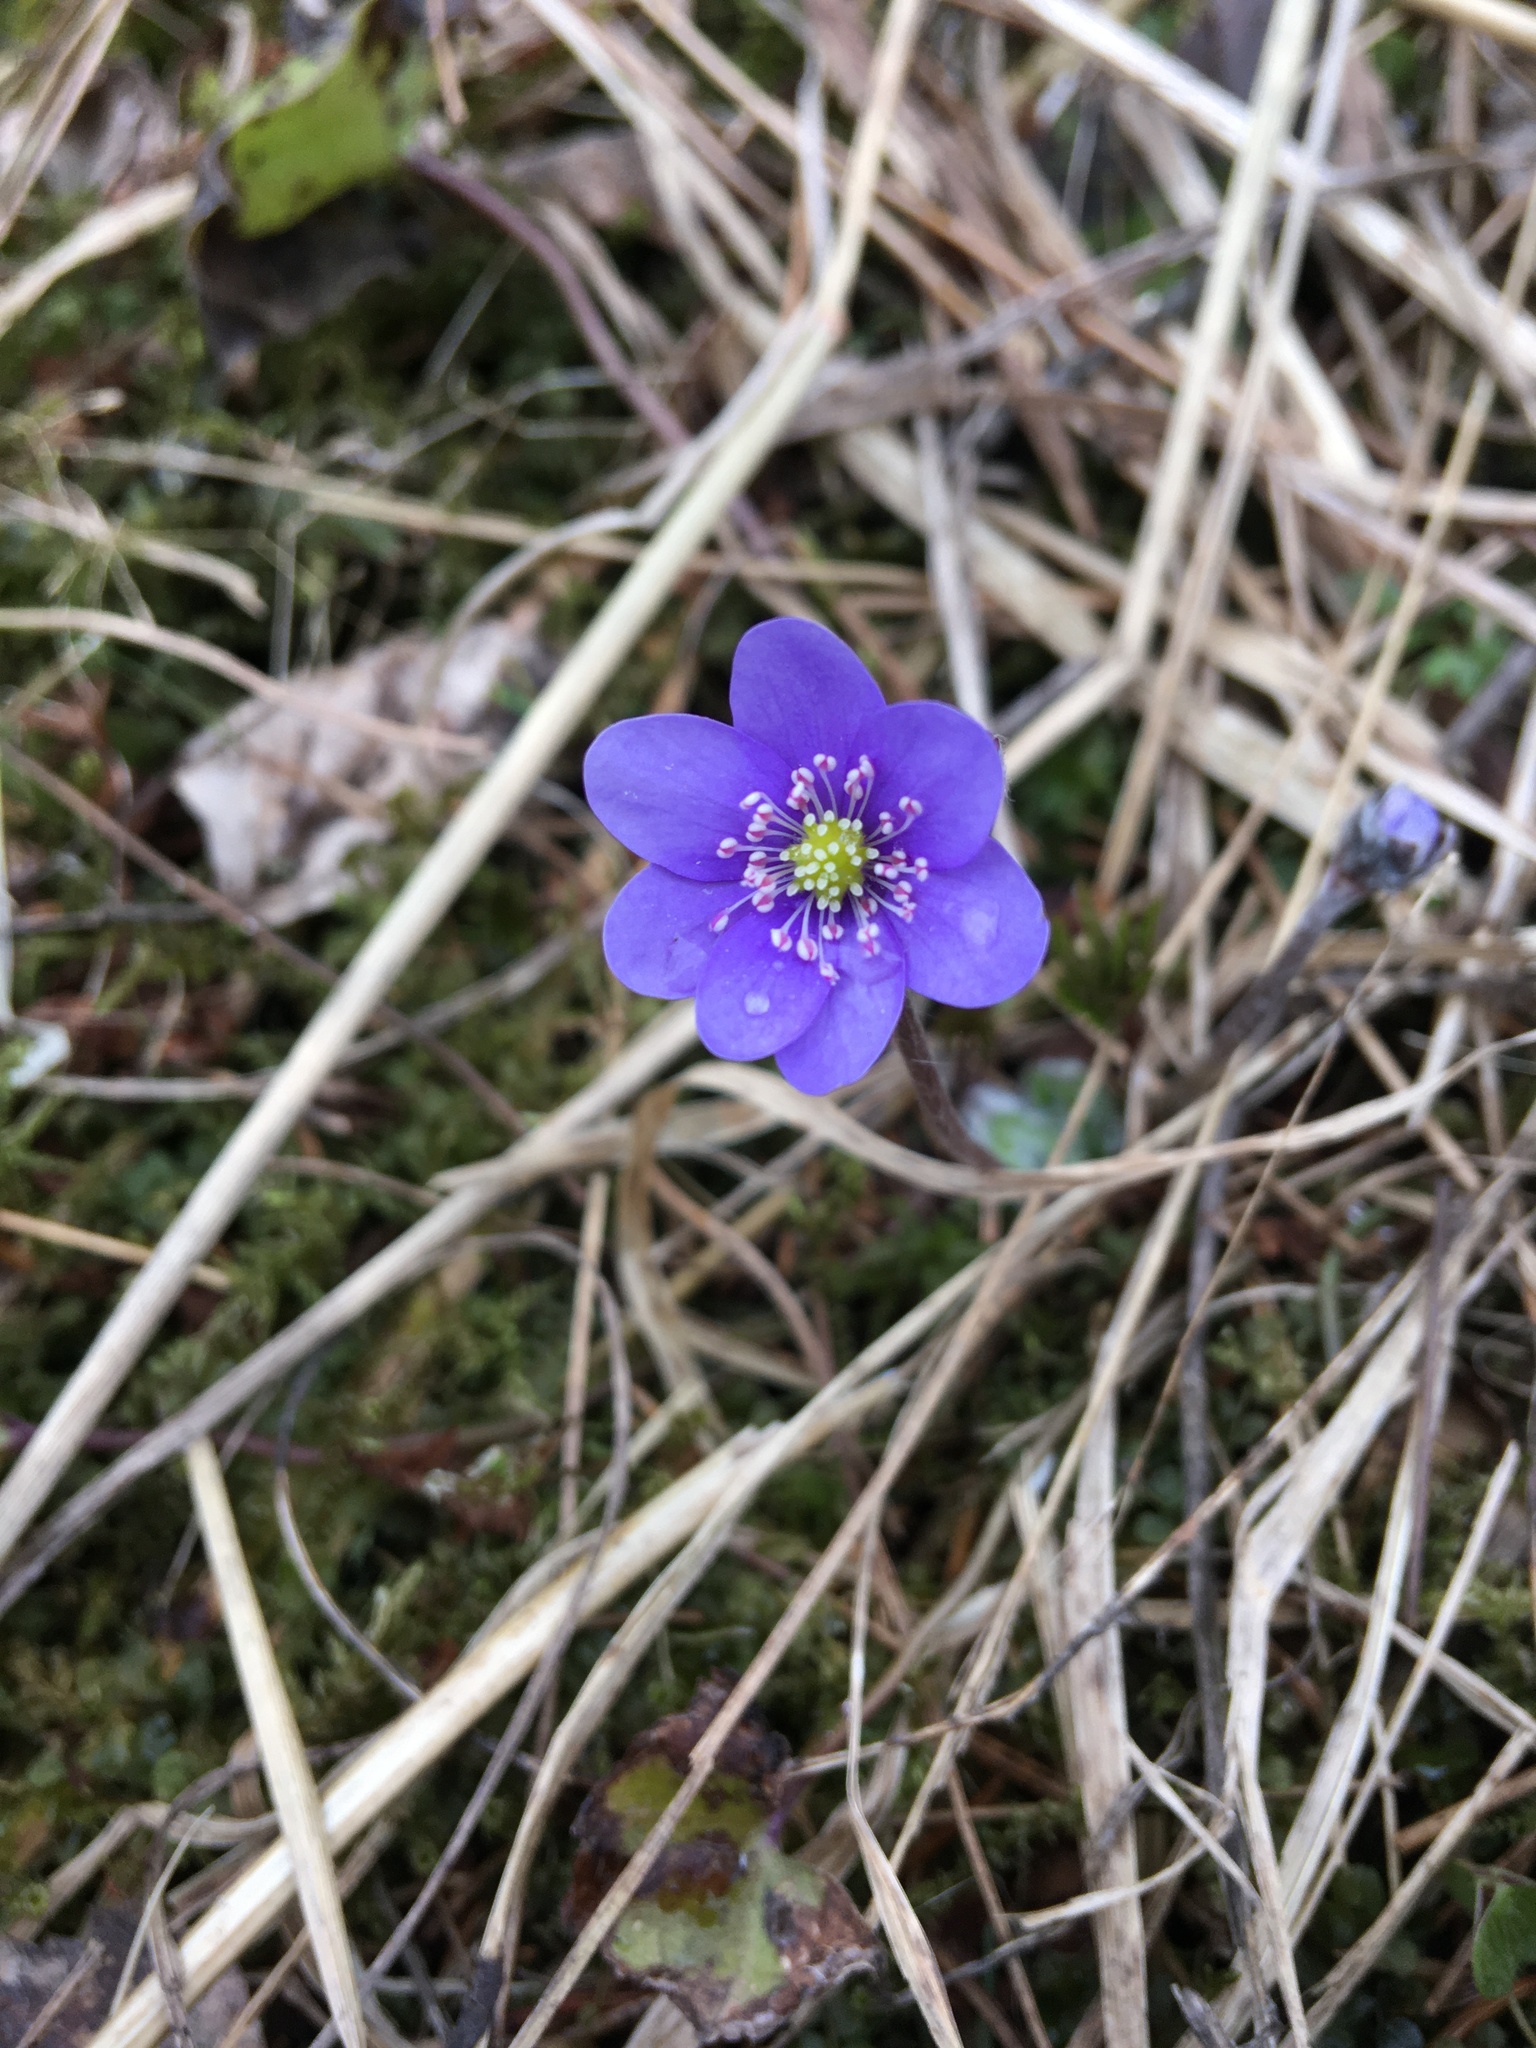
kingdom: Plantae
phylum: Tracheophyta
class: Magnoliopsida
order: Ranunculales
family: Ranunculaceae
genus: Hepatica
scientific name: Hepatica nobilis
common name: Liverleaf
